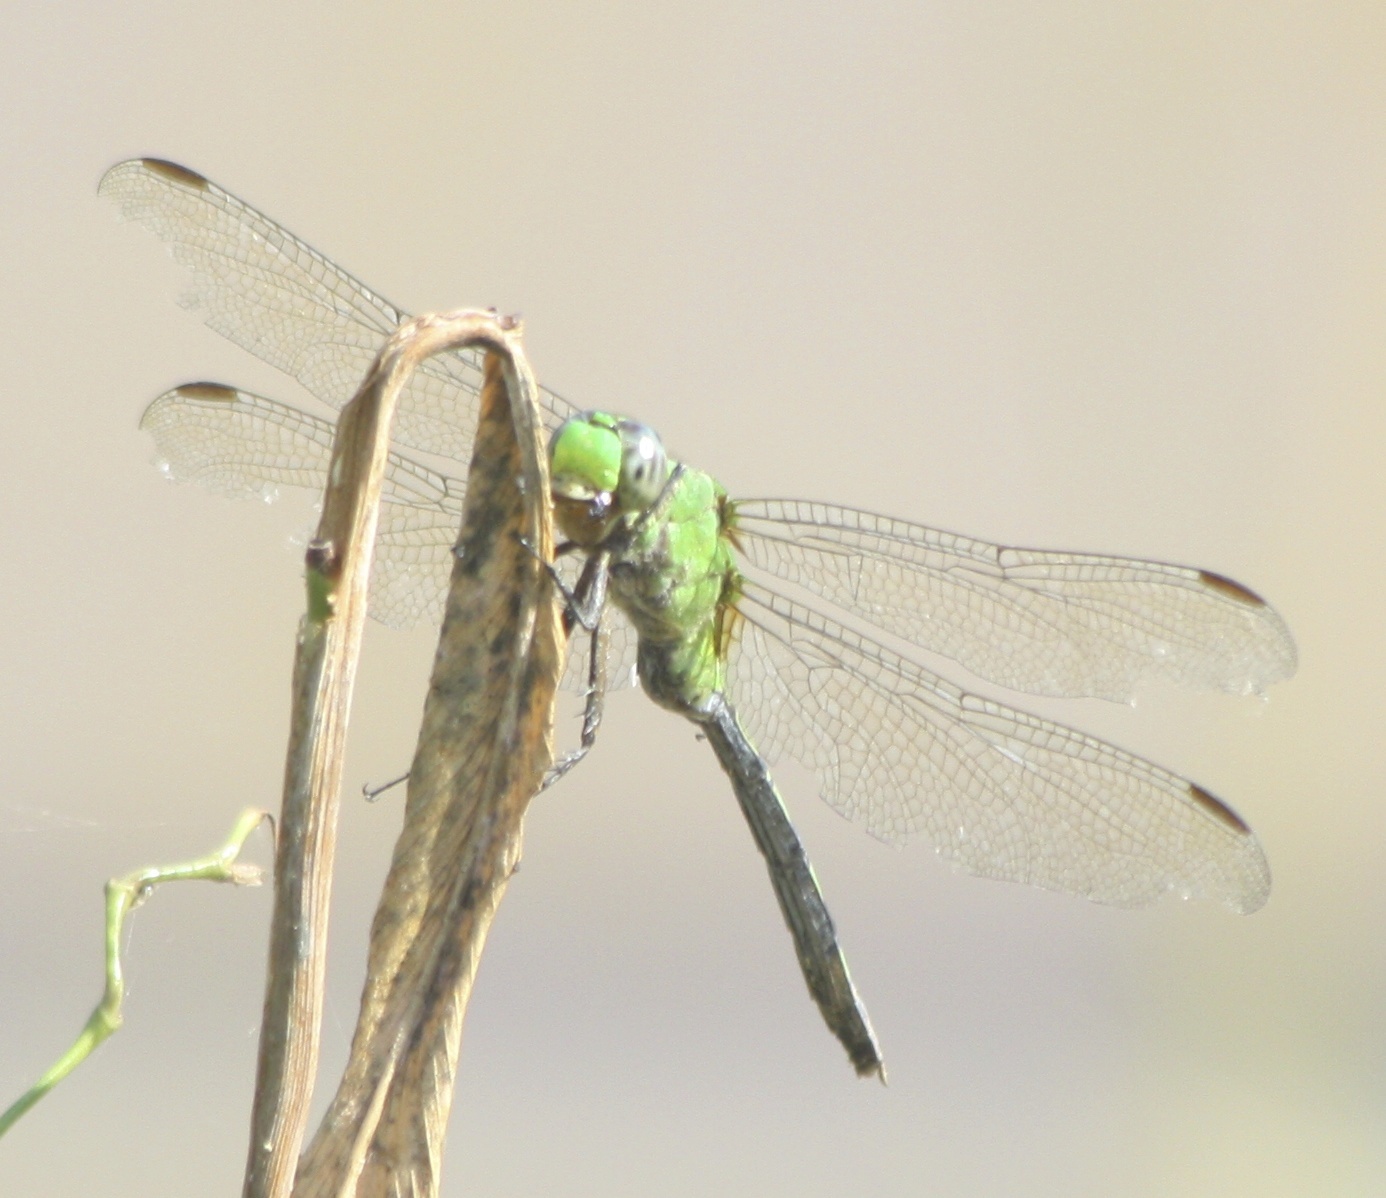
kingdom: Animalia
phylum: Arthropoda
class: Insecta
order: Odonata
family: Libellulidae
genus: Erythemis
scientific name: Erythemis vesiculosa
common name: Great pondhawk
